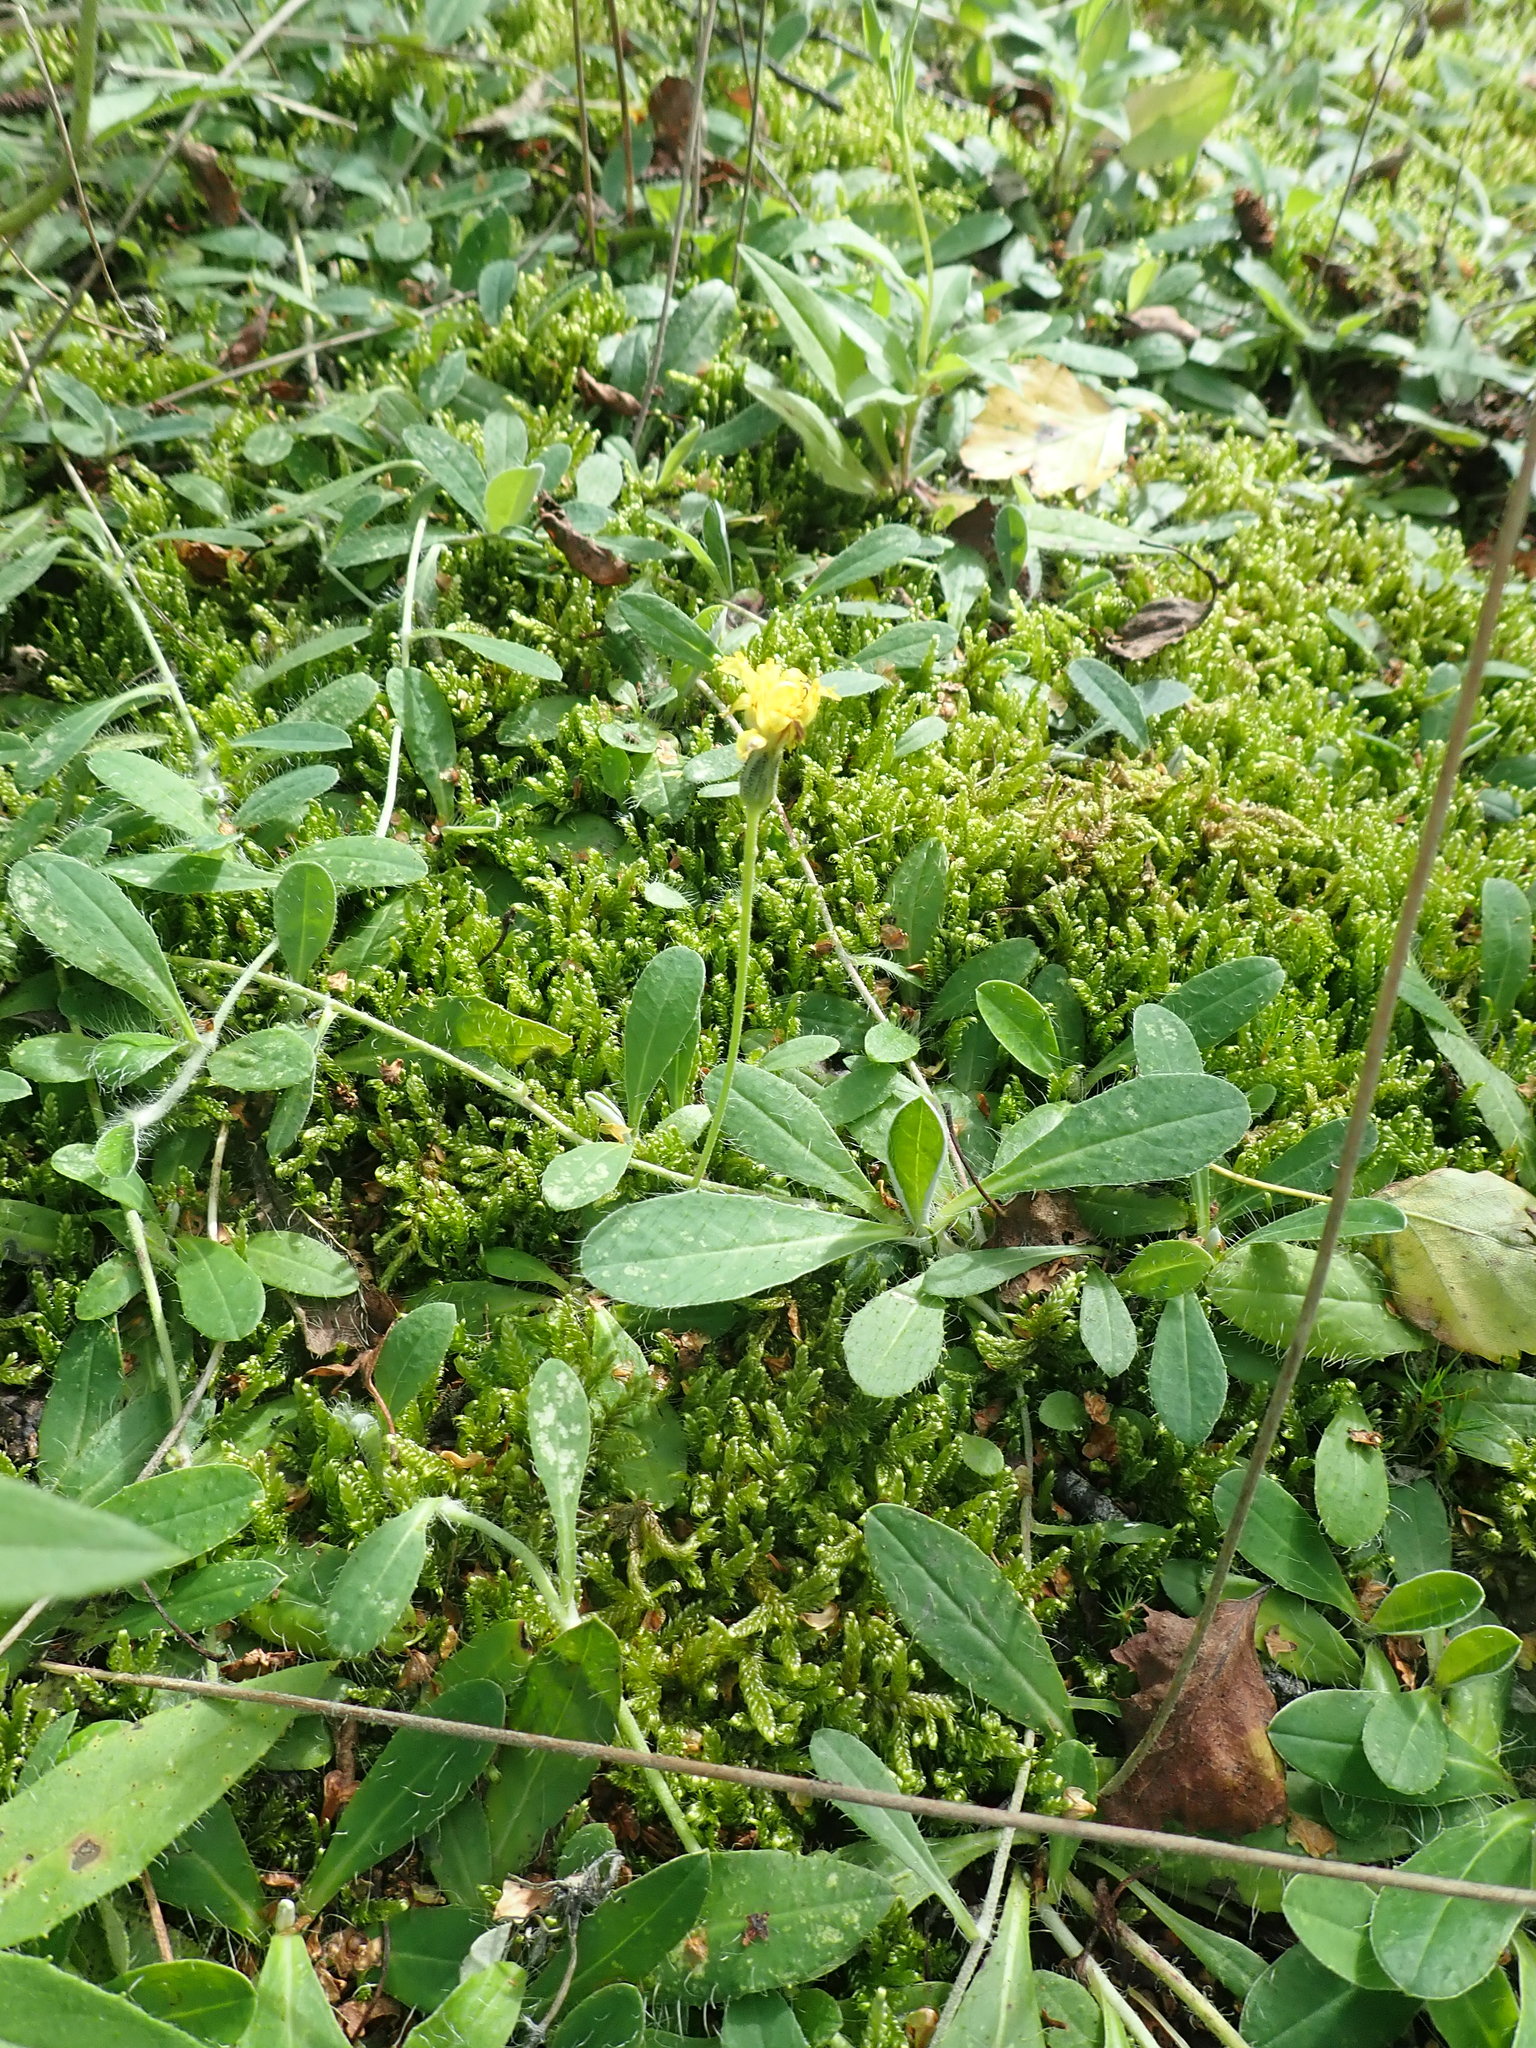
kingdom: Plantae
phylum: Tracheophyta
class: Magnoliopsida
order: Asterales
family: Asteraceae
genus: Pilosella
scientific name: Pilosella officinarum
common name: Mouse-ear hawkweed
